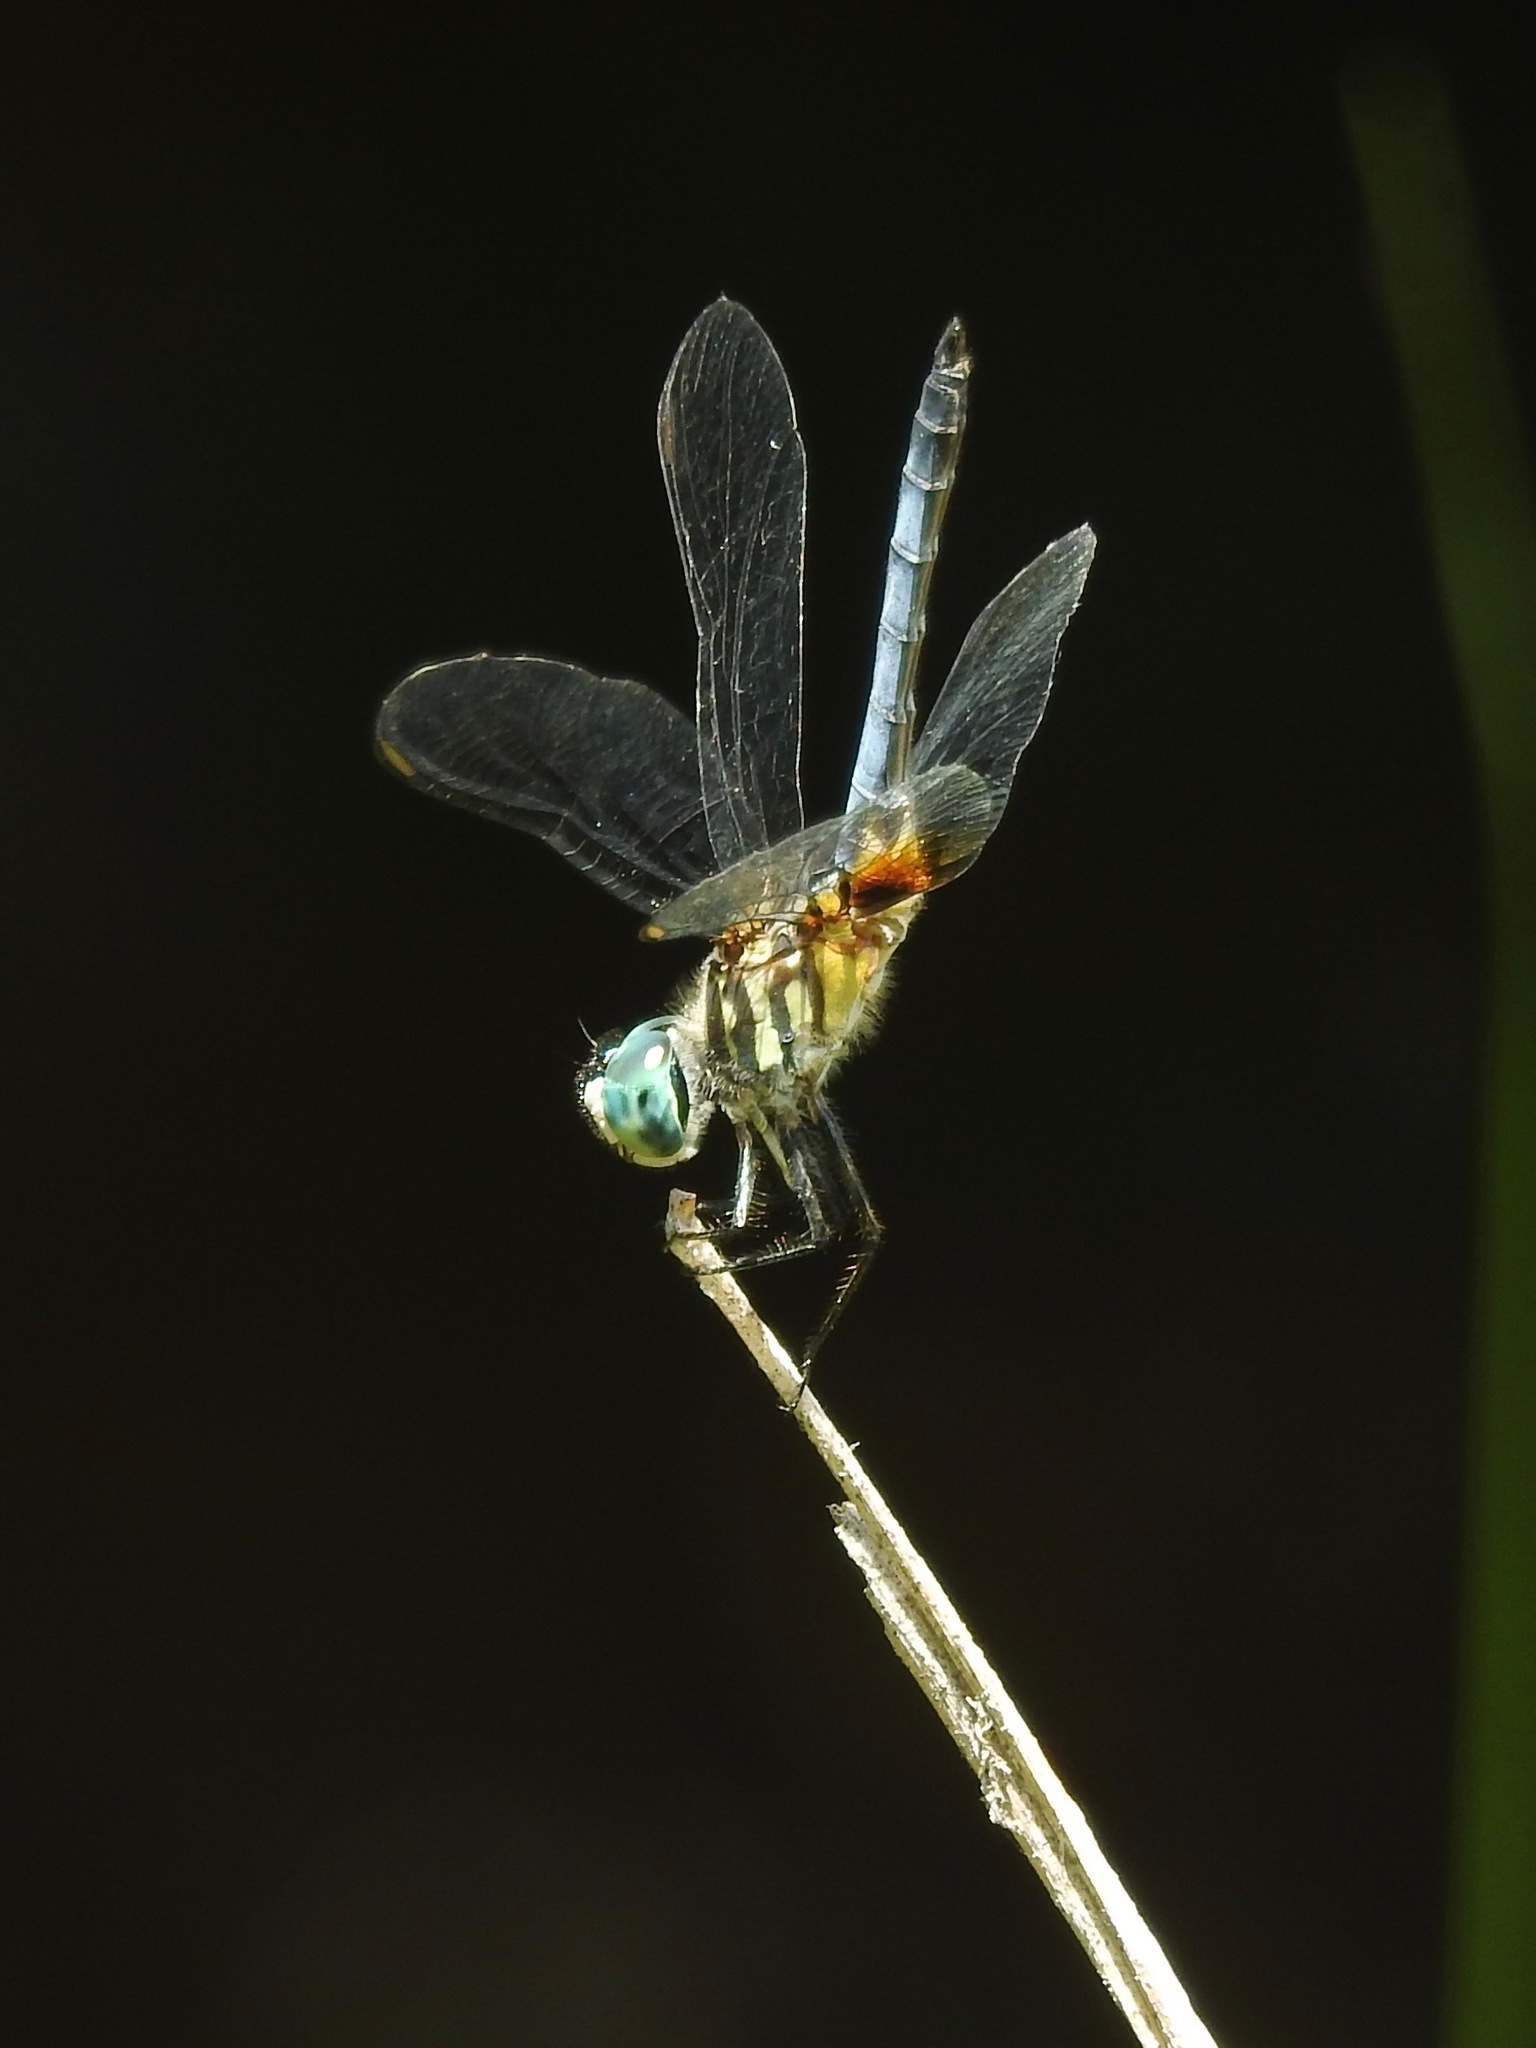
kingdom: Animalia
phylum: Arthropoda
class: Insecta
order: Odonata
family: Libellulidae
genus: Pachydiplax
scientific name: Pachydiplax longipennis
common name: Blue dasher
